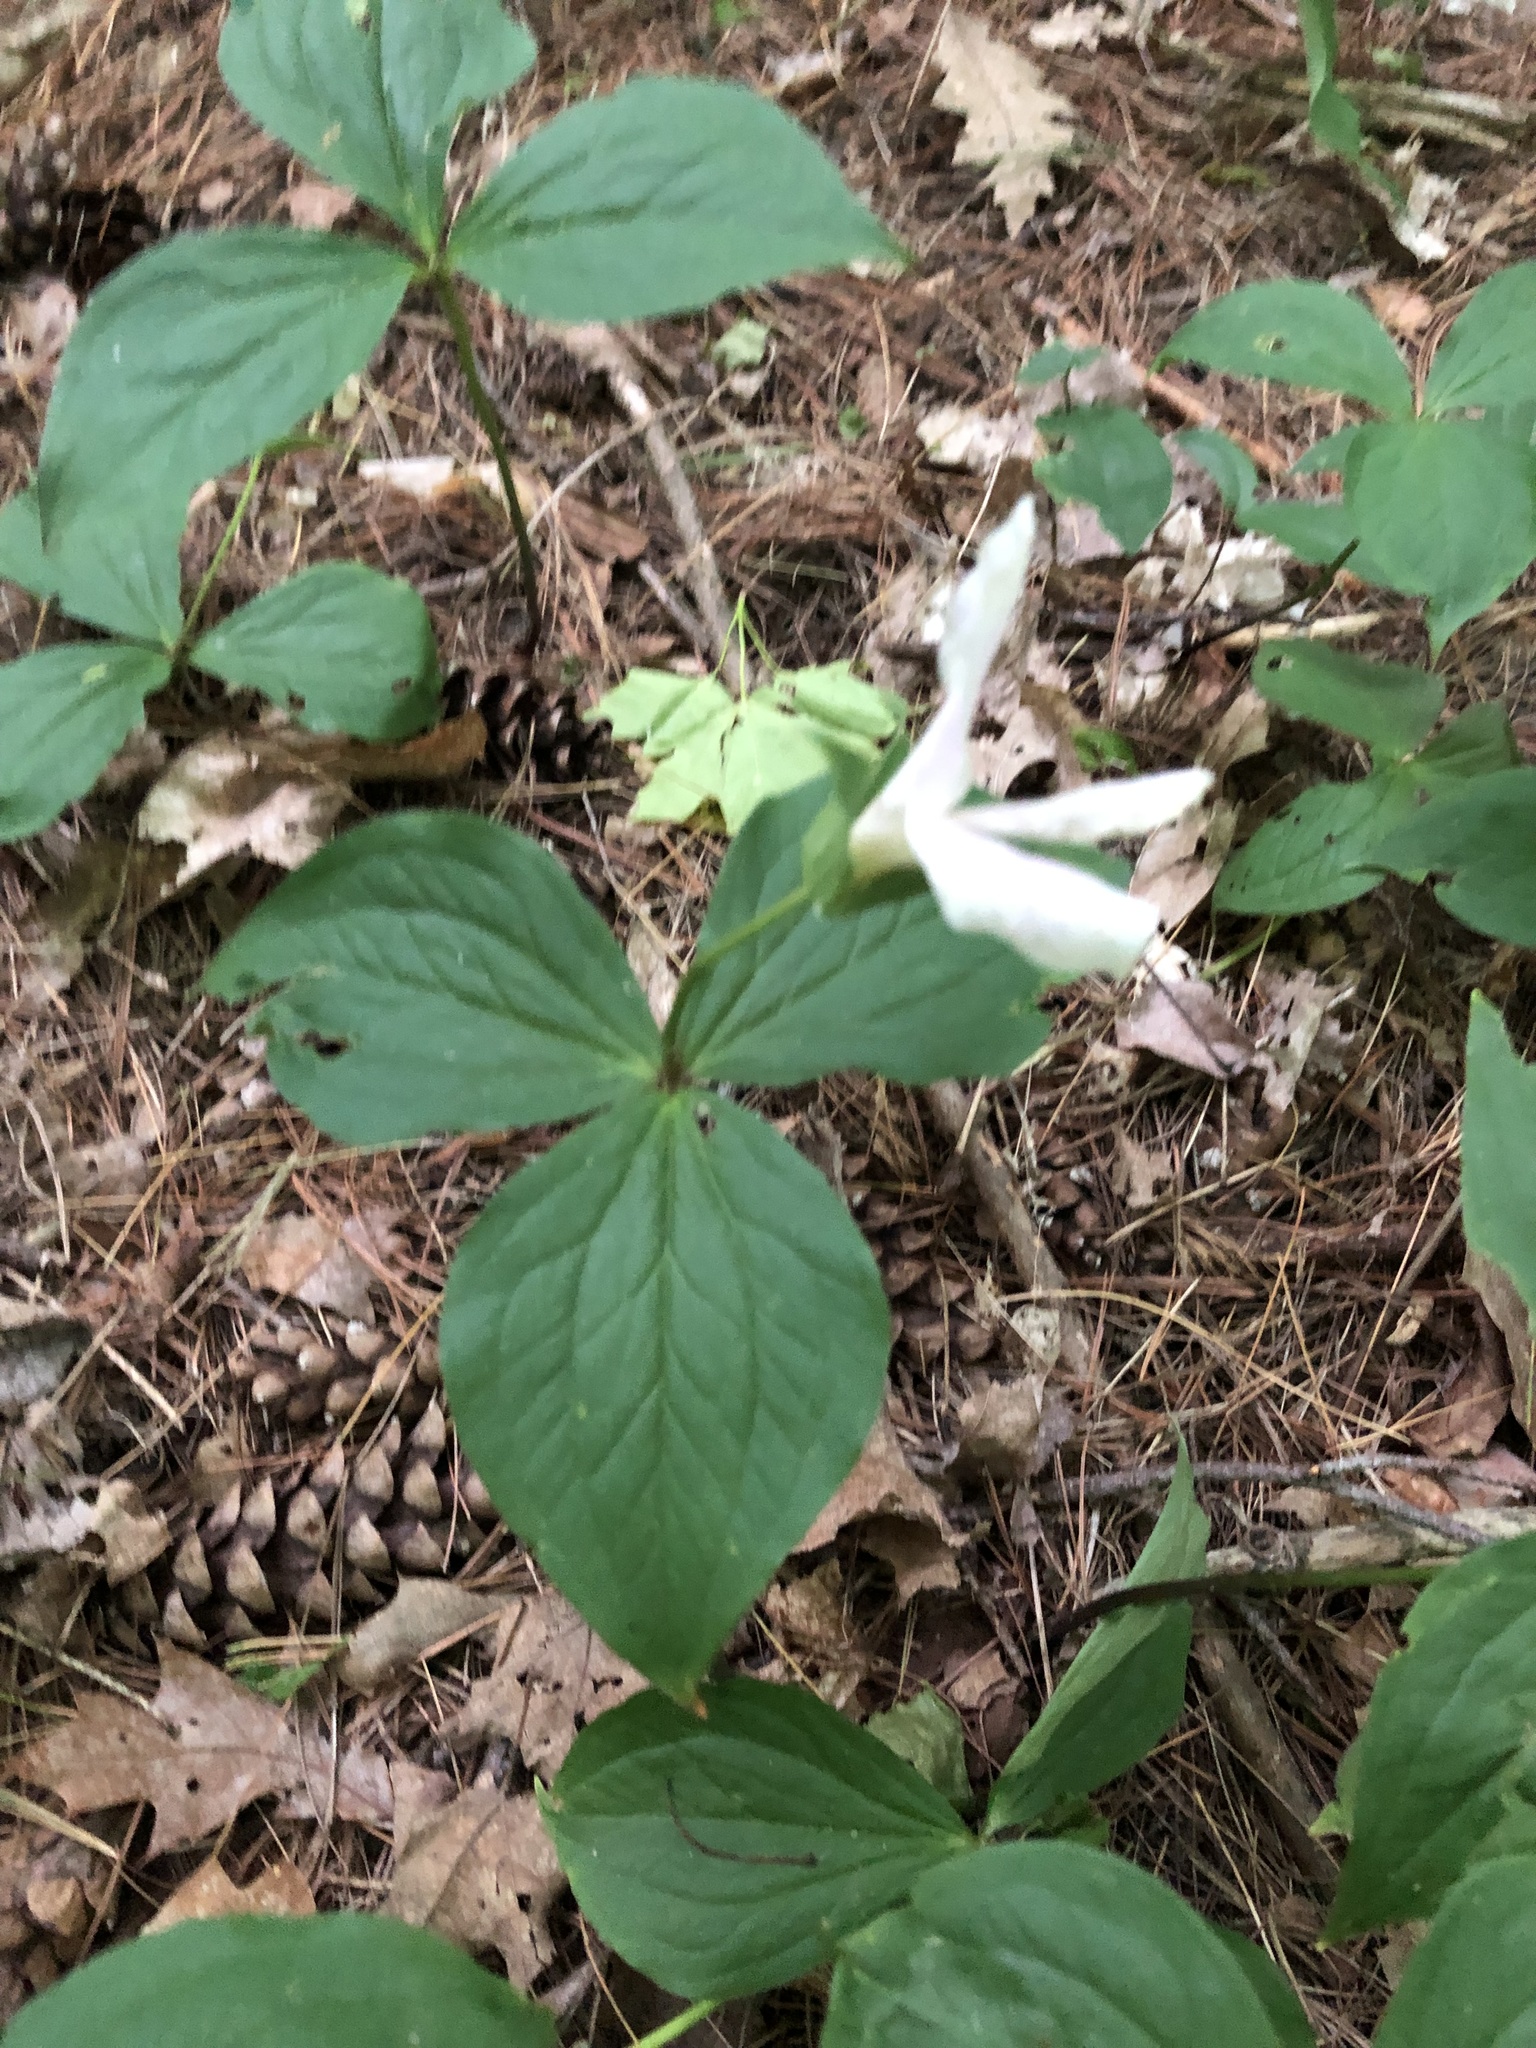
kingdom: Plantae
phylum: Tracheophyta
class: Liliopsida
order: Liliales
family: Melanthiaceae
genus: Trillium
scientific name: Trillium grandiflorum
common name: Great white trillium
